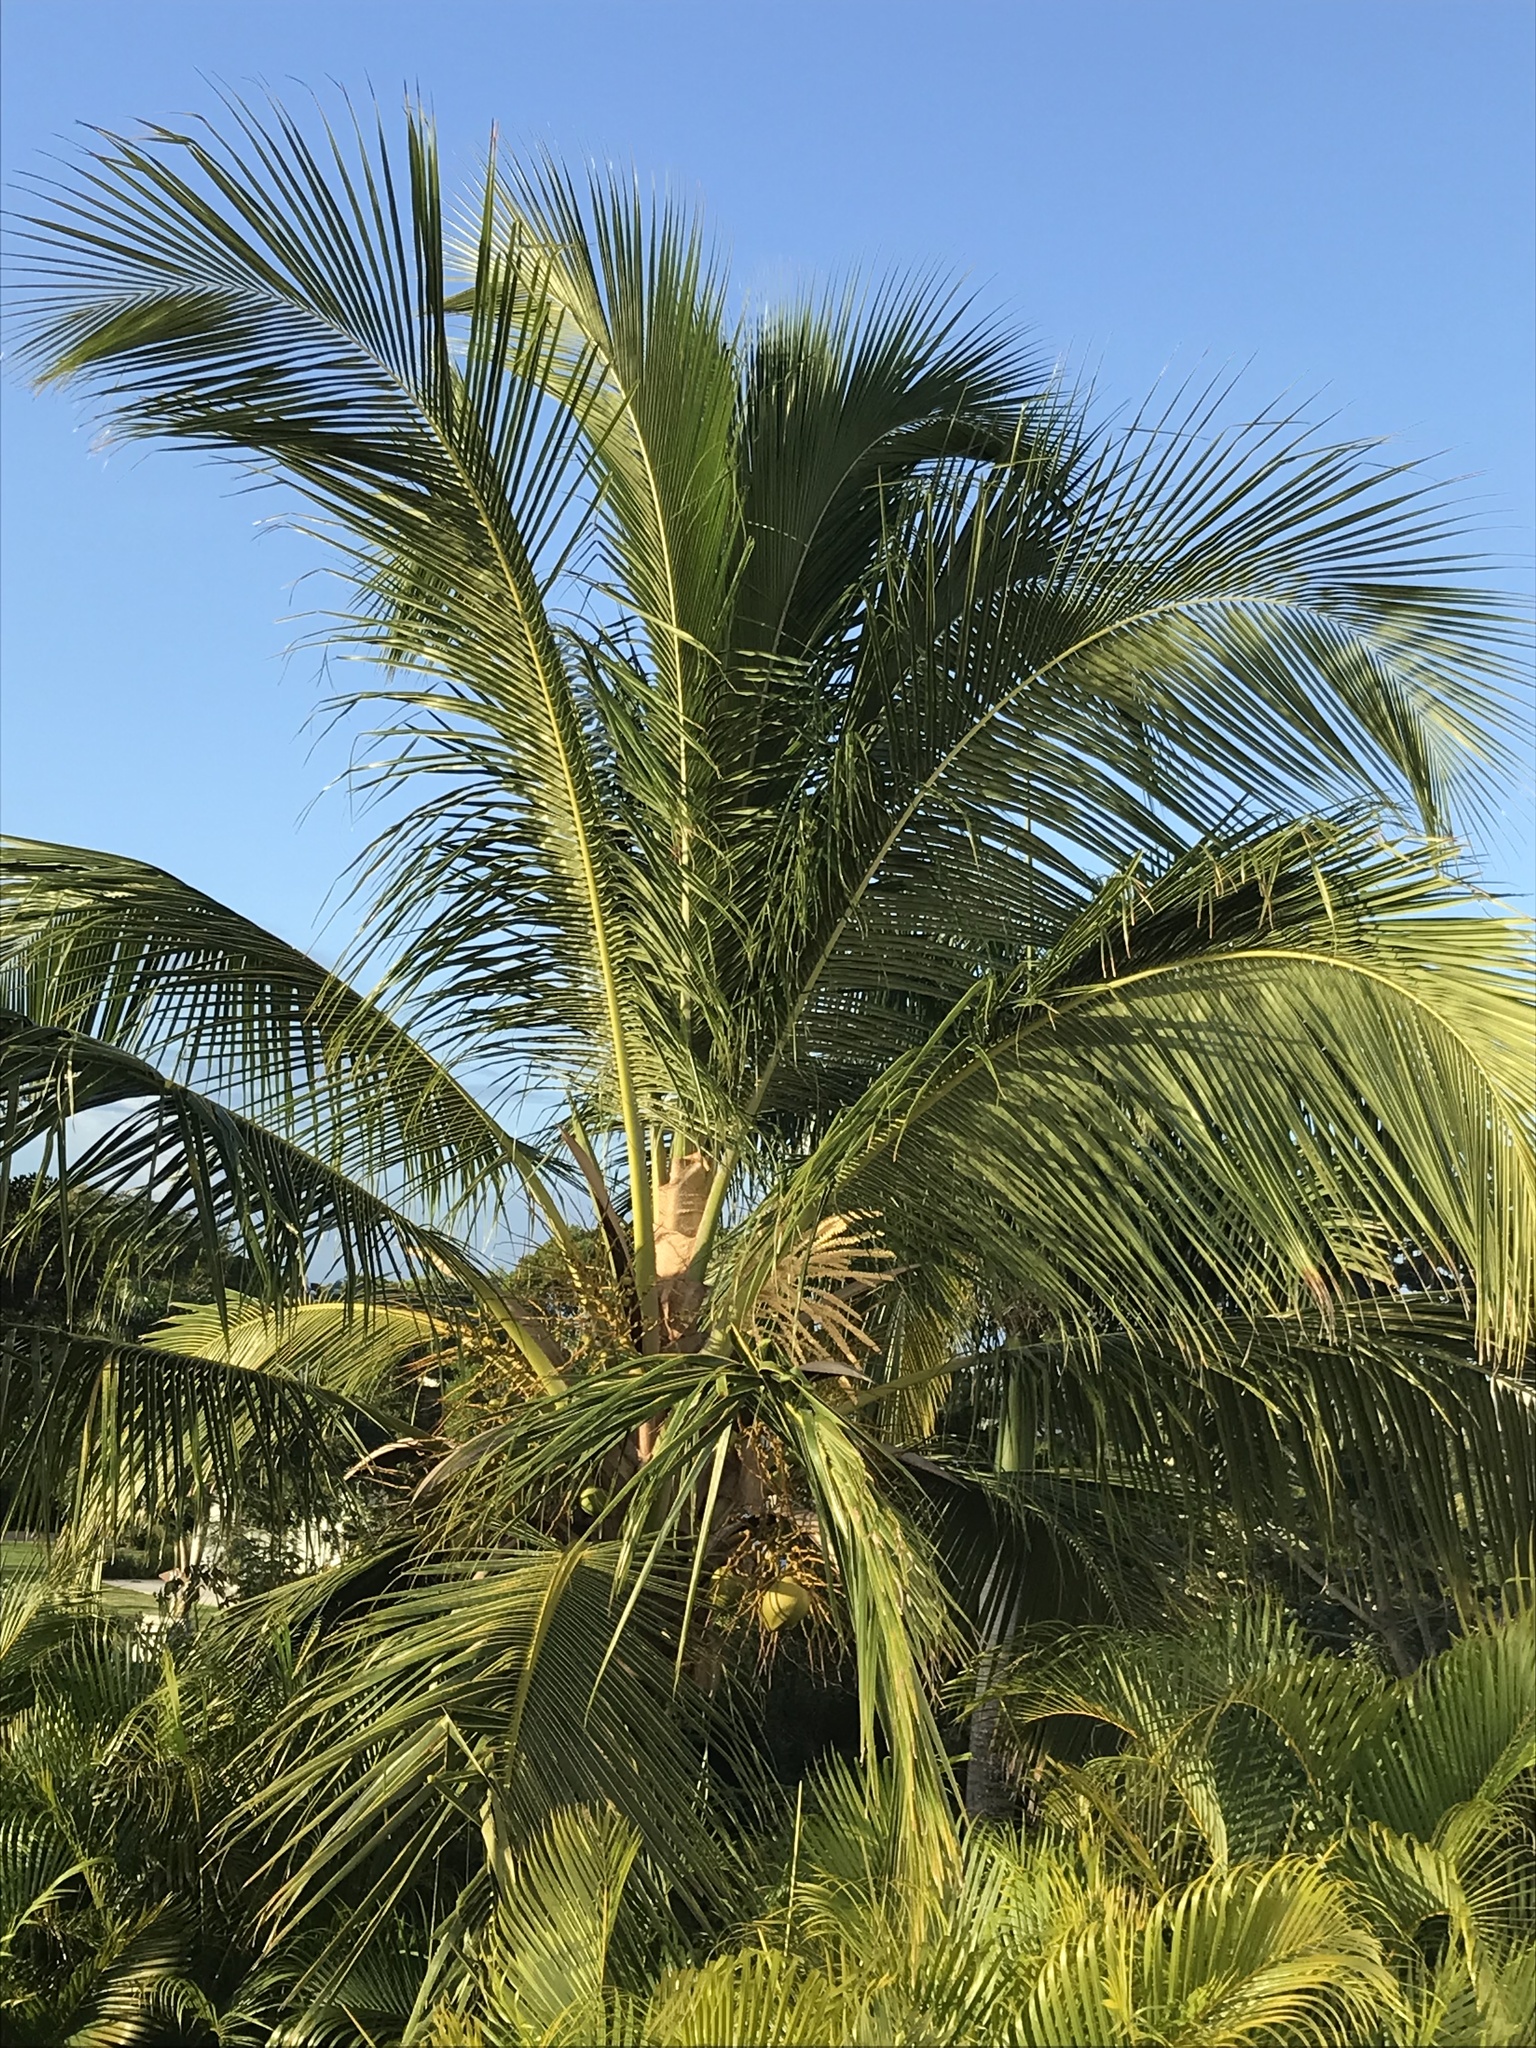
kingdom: Plantae
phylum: Tracheophyta
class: Liliopsida
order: Arecales
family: Arecaceae
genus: Cocos
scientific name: Cocos nucifera
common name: Coconut palm
